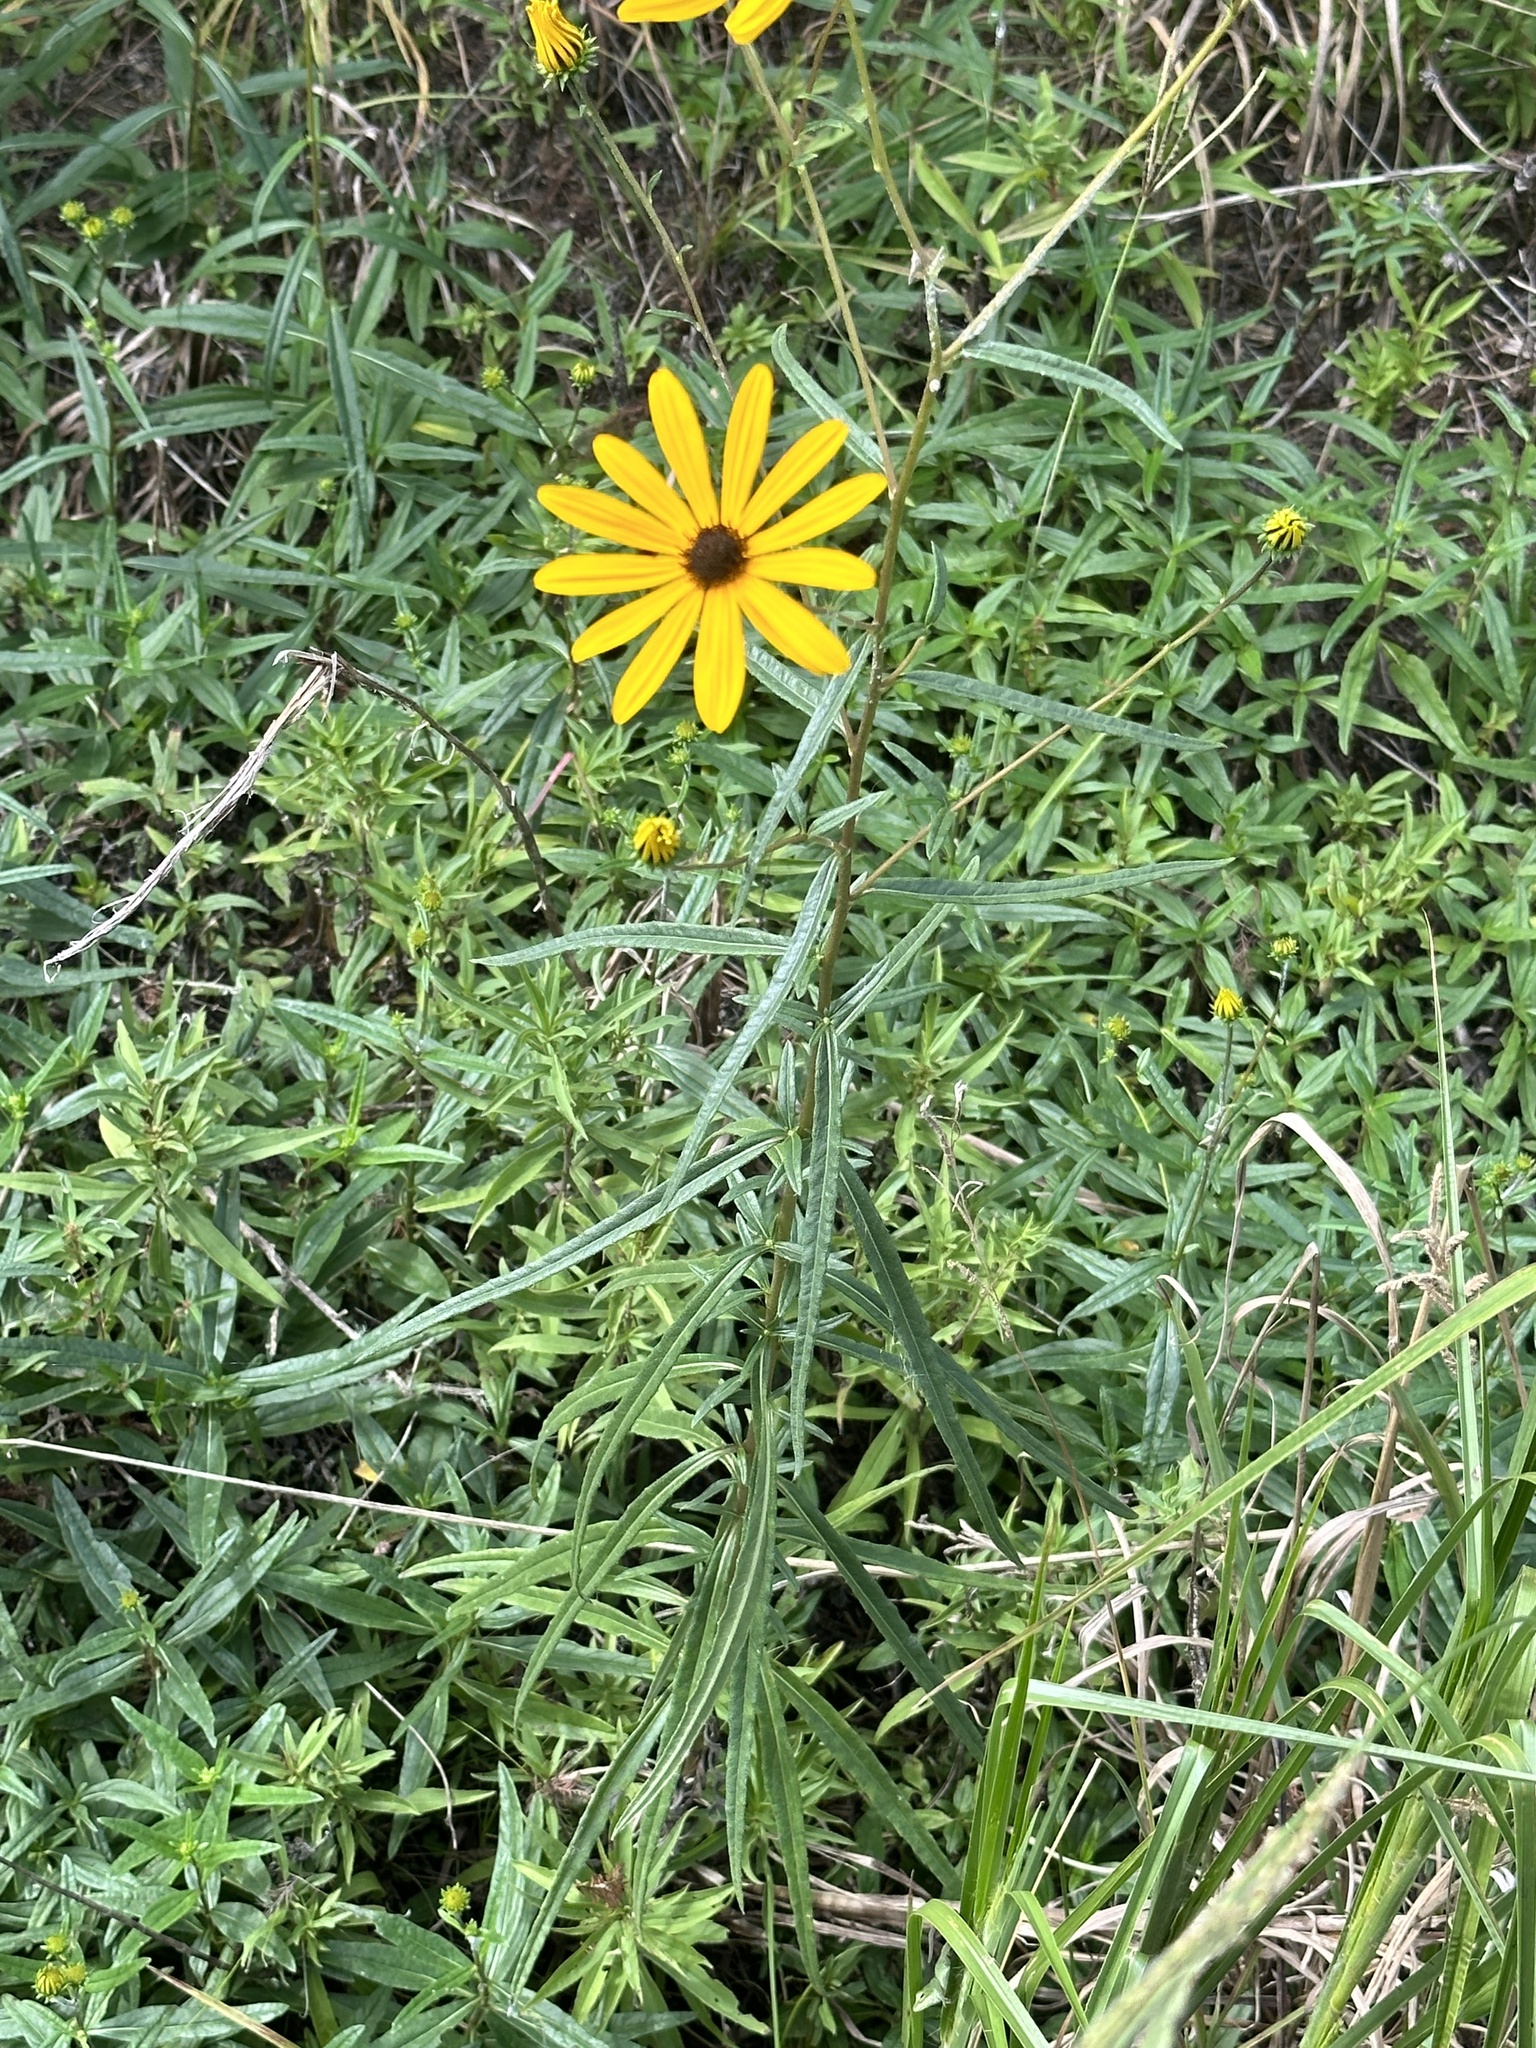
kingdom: Plantae
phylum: Tracheophyta
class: Magnoliopsida
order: Asterales
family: Asteraceae
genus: Helianthus
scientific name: Helianthus angustifolius
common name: Swamp sunflower
